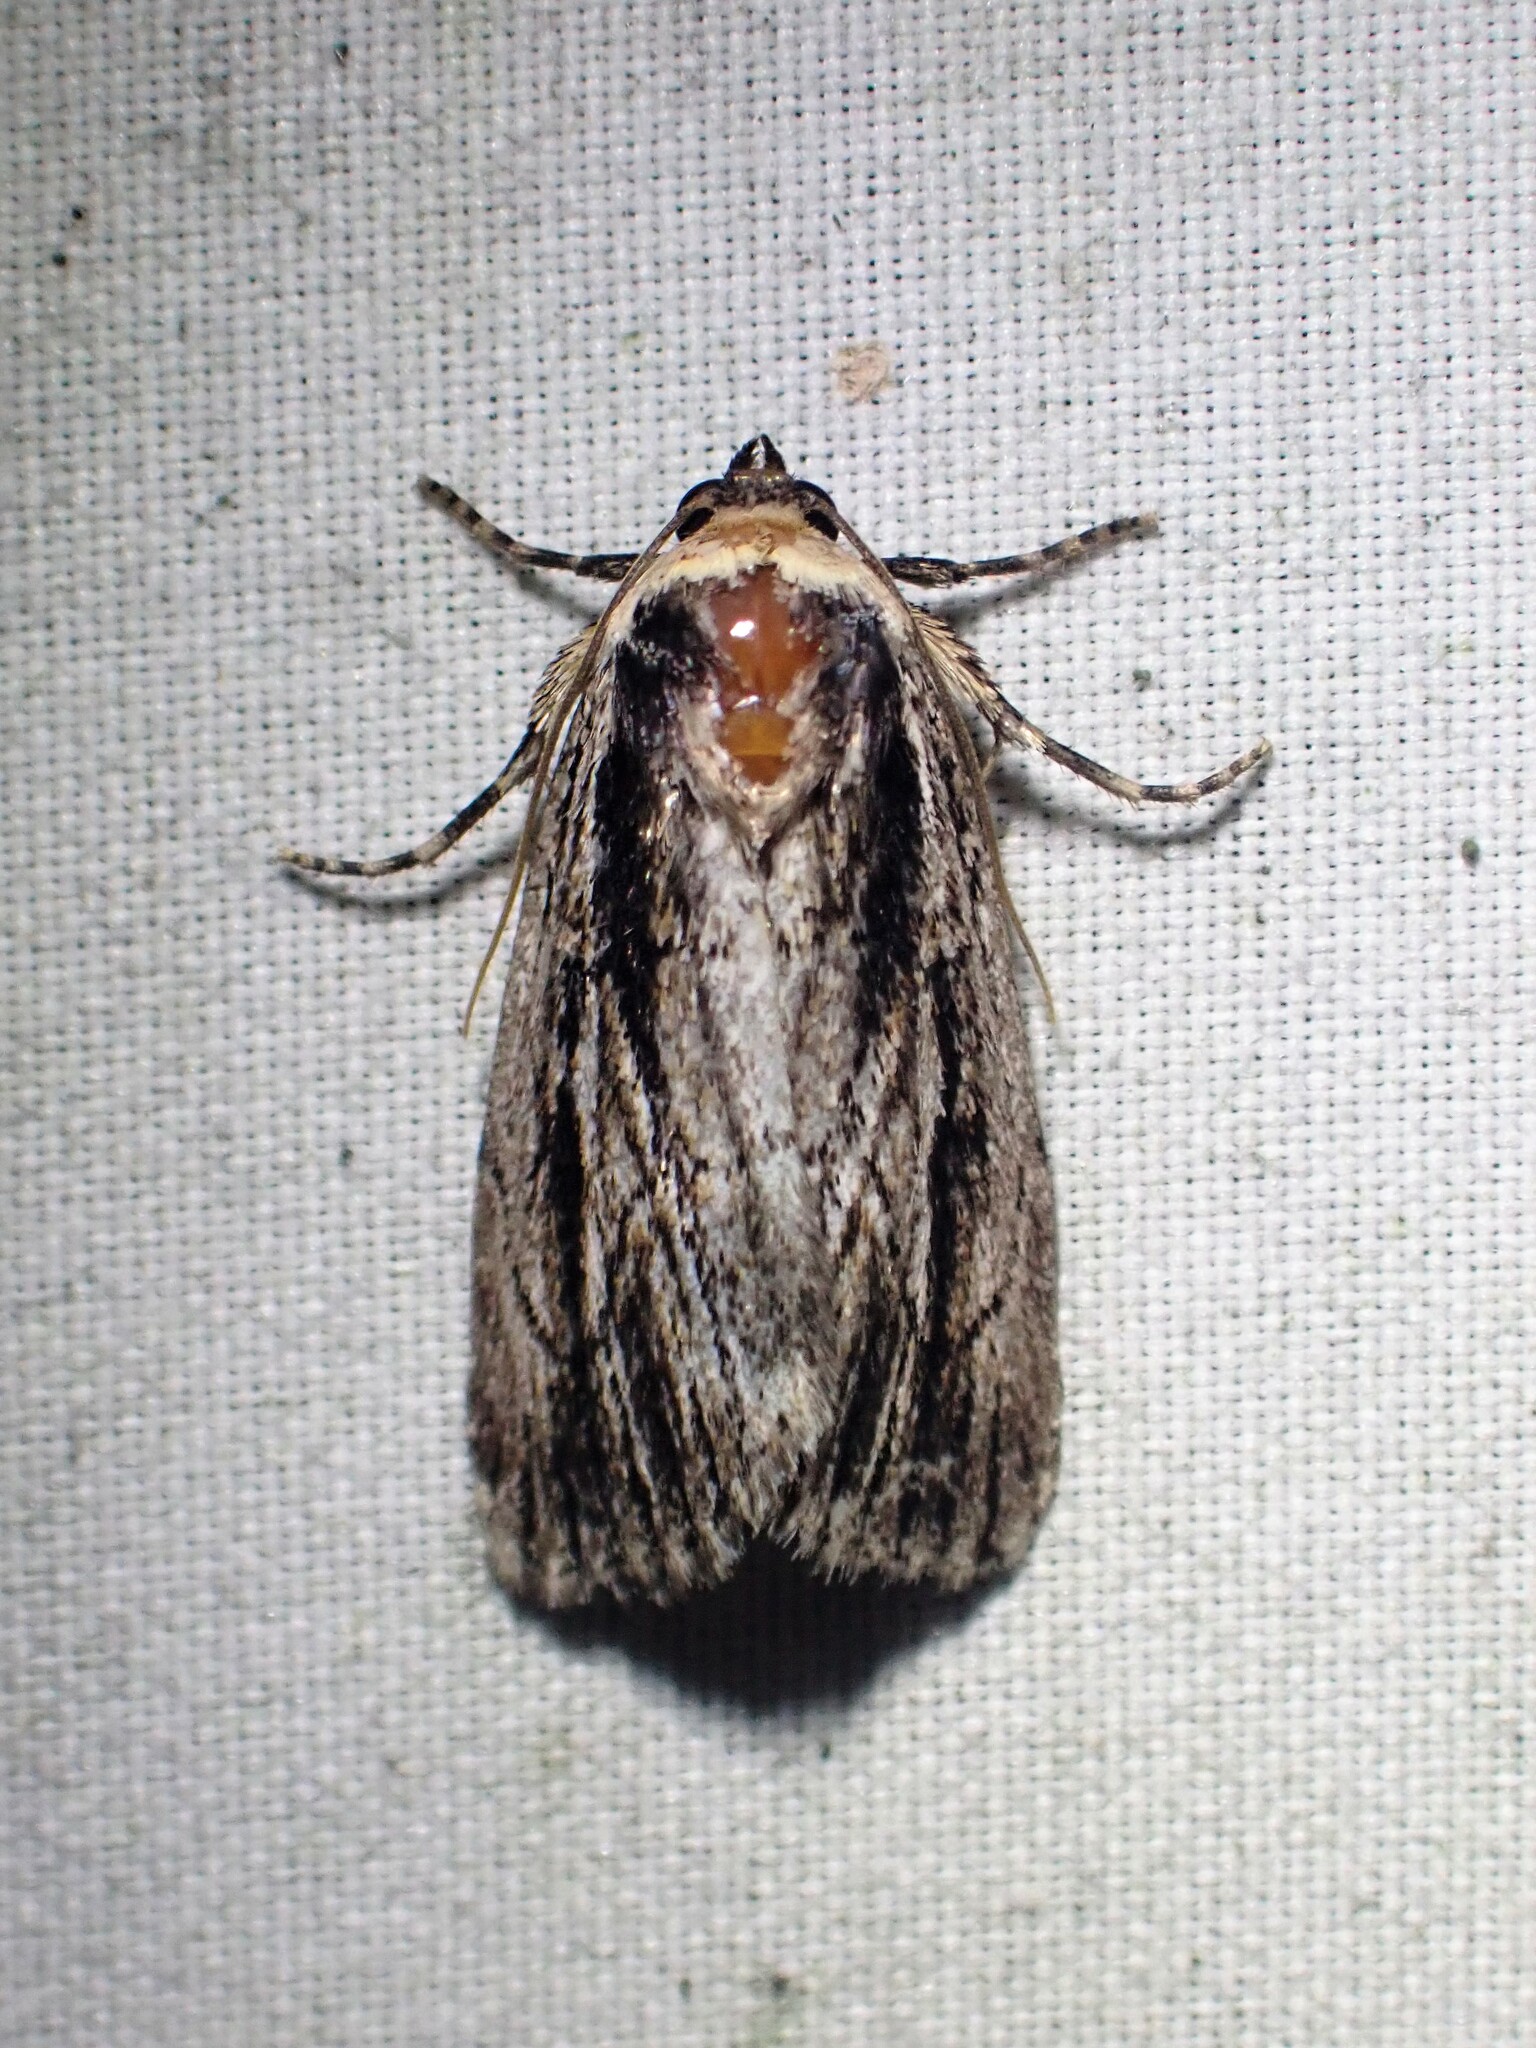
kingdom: Animalia
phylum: Arthropoda
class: Insecta
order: Lepidoptera
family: Noctuidae
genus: Sympistis
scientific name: Sympistis badistriga
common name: Brown-lined sallow moth
